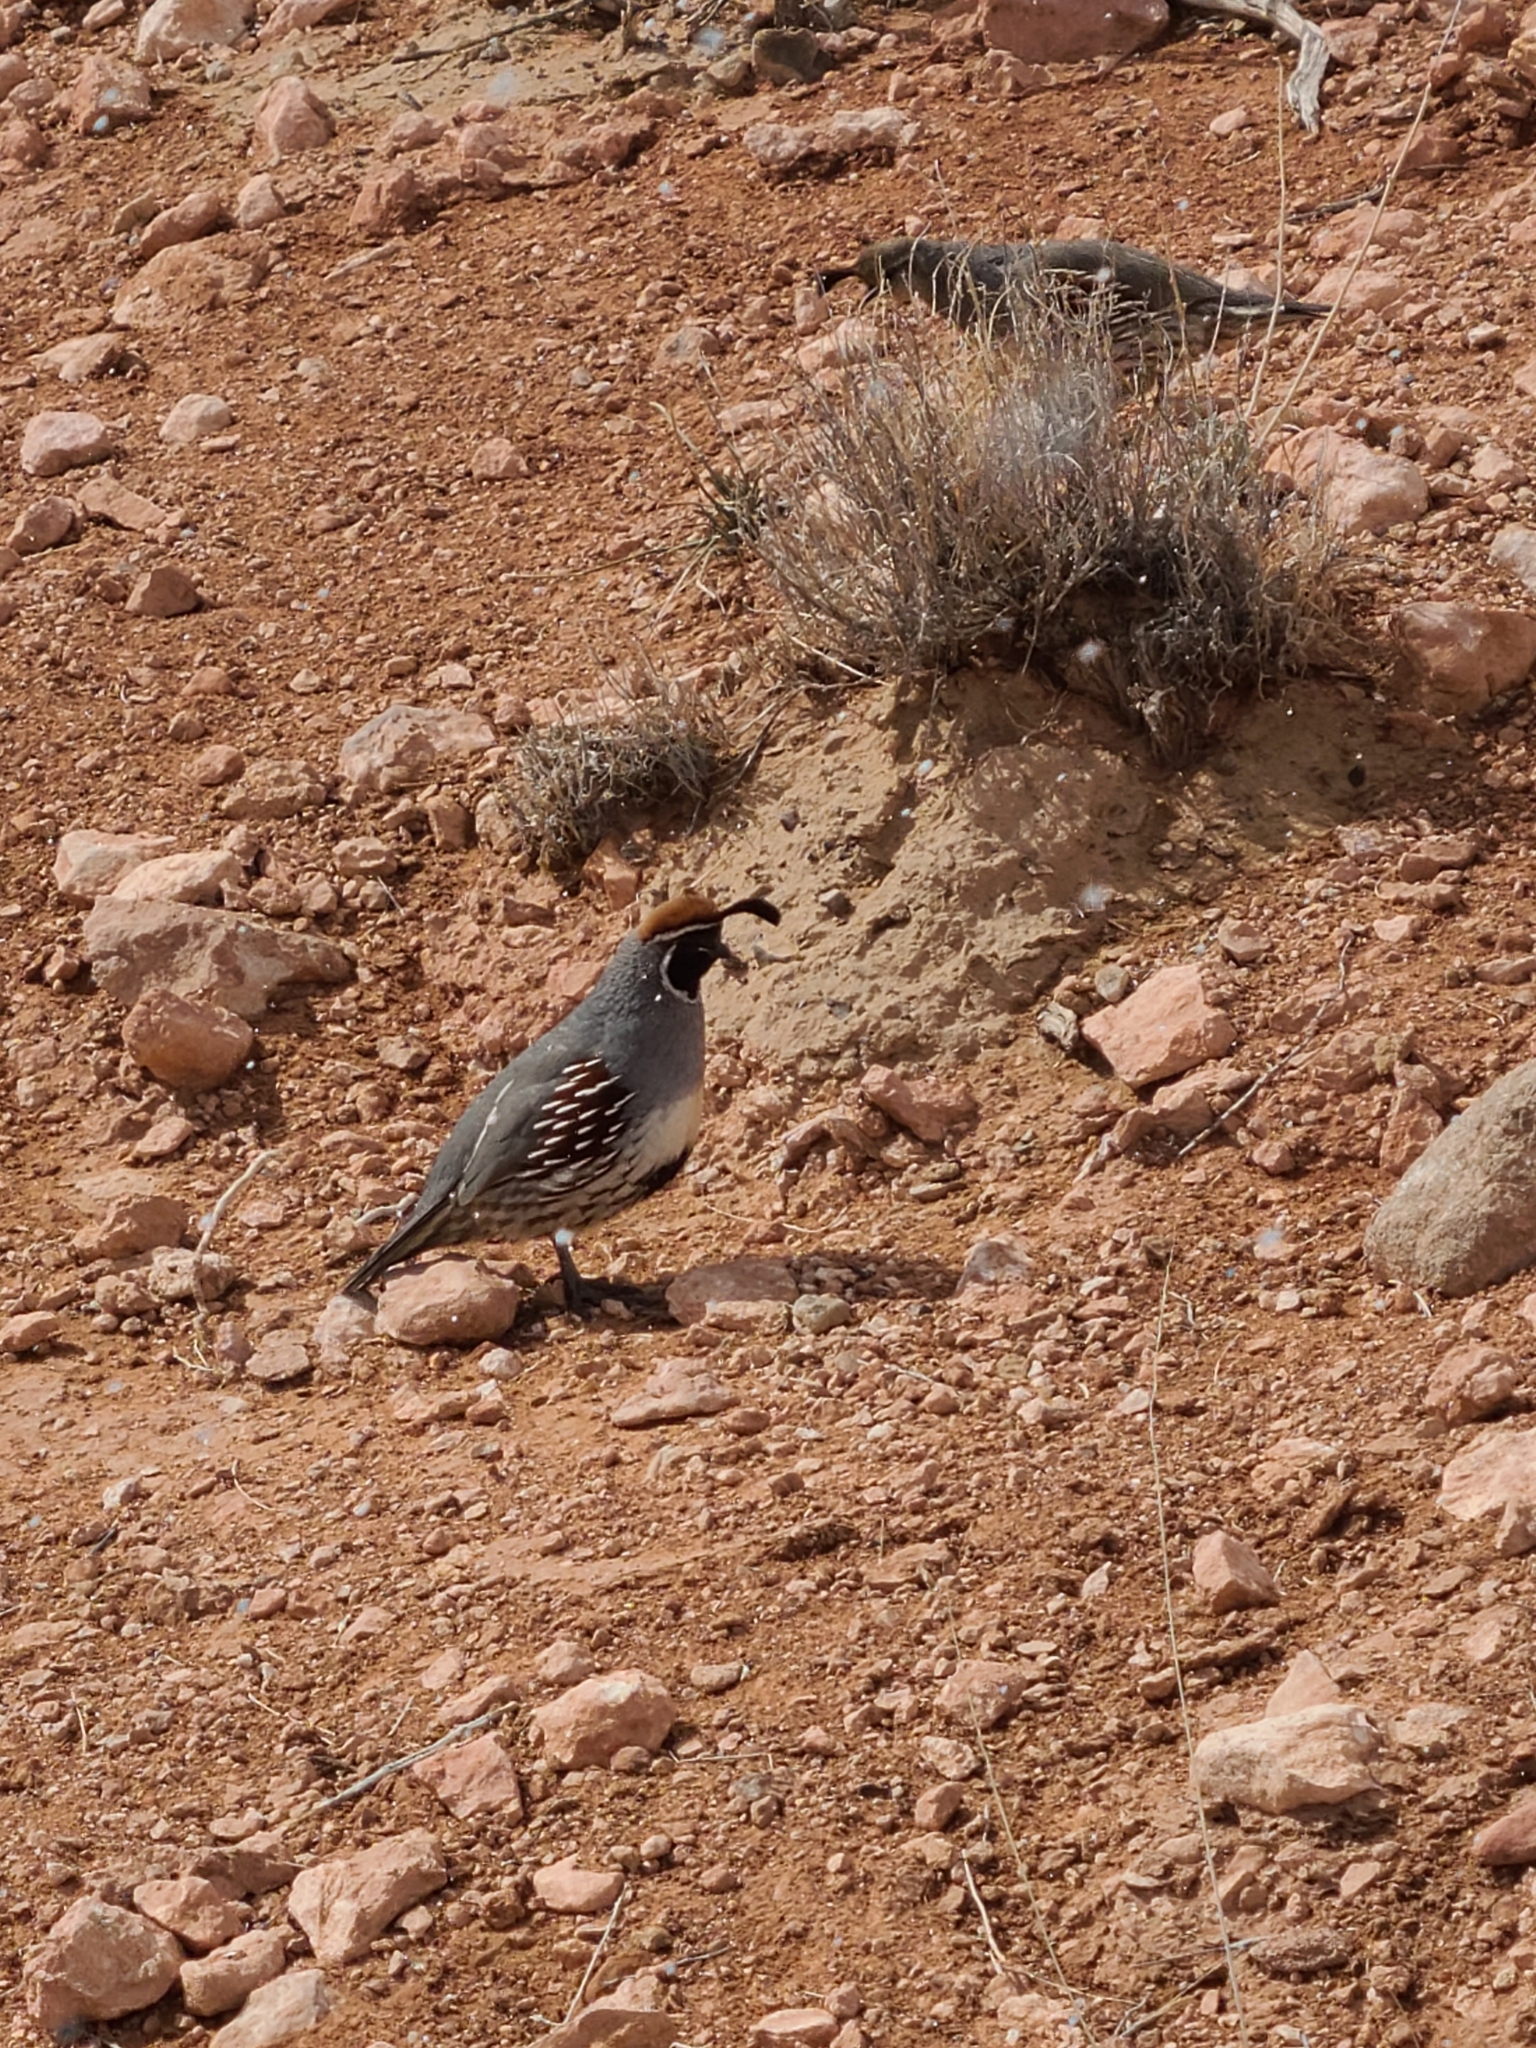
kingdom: Animalia
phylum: Chordata
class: Aves
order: Galliformes
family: Odontophoridae
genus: Callipepla
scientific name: Callipepla gambelii
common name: Gambel's quail
